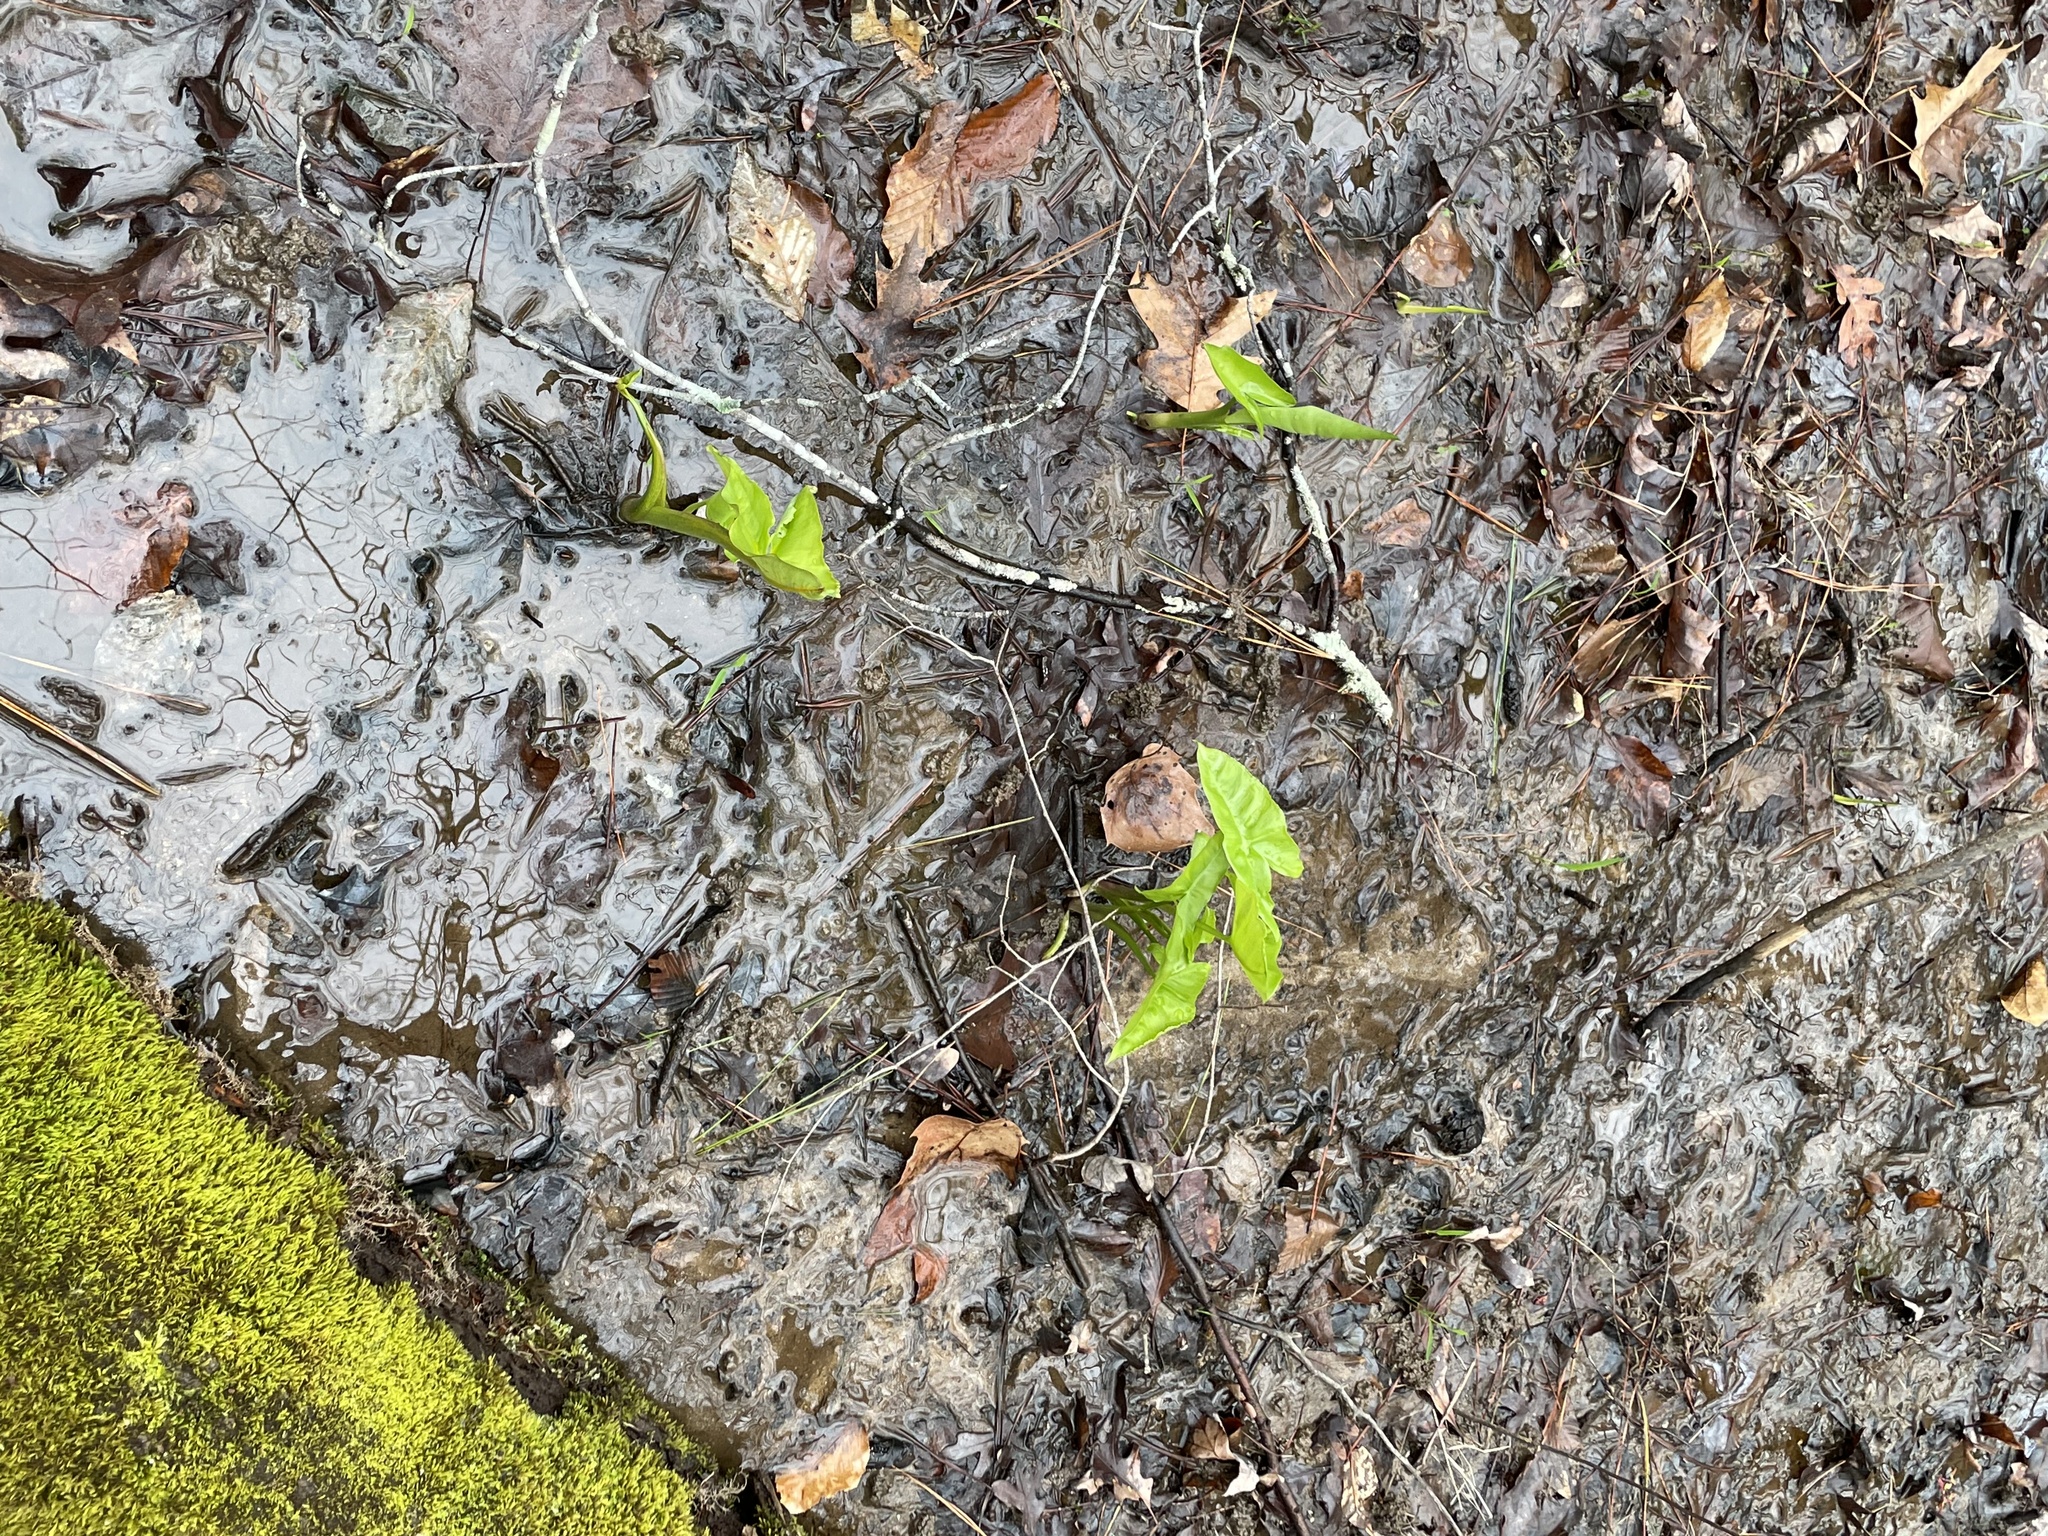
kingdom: Plantae
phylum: Tracheophyta
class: Liliopsida
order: Alismatales
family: Araceae
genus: Peltandra
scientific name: Peltandra virginica
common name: Arrow arum
